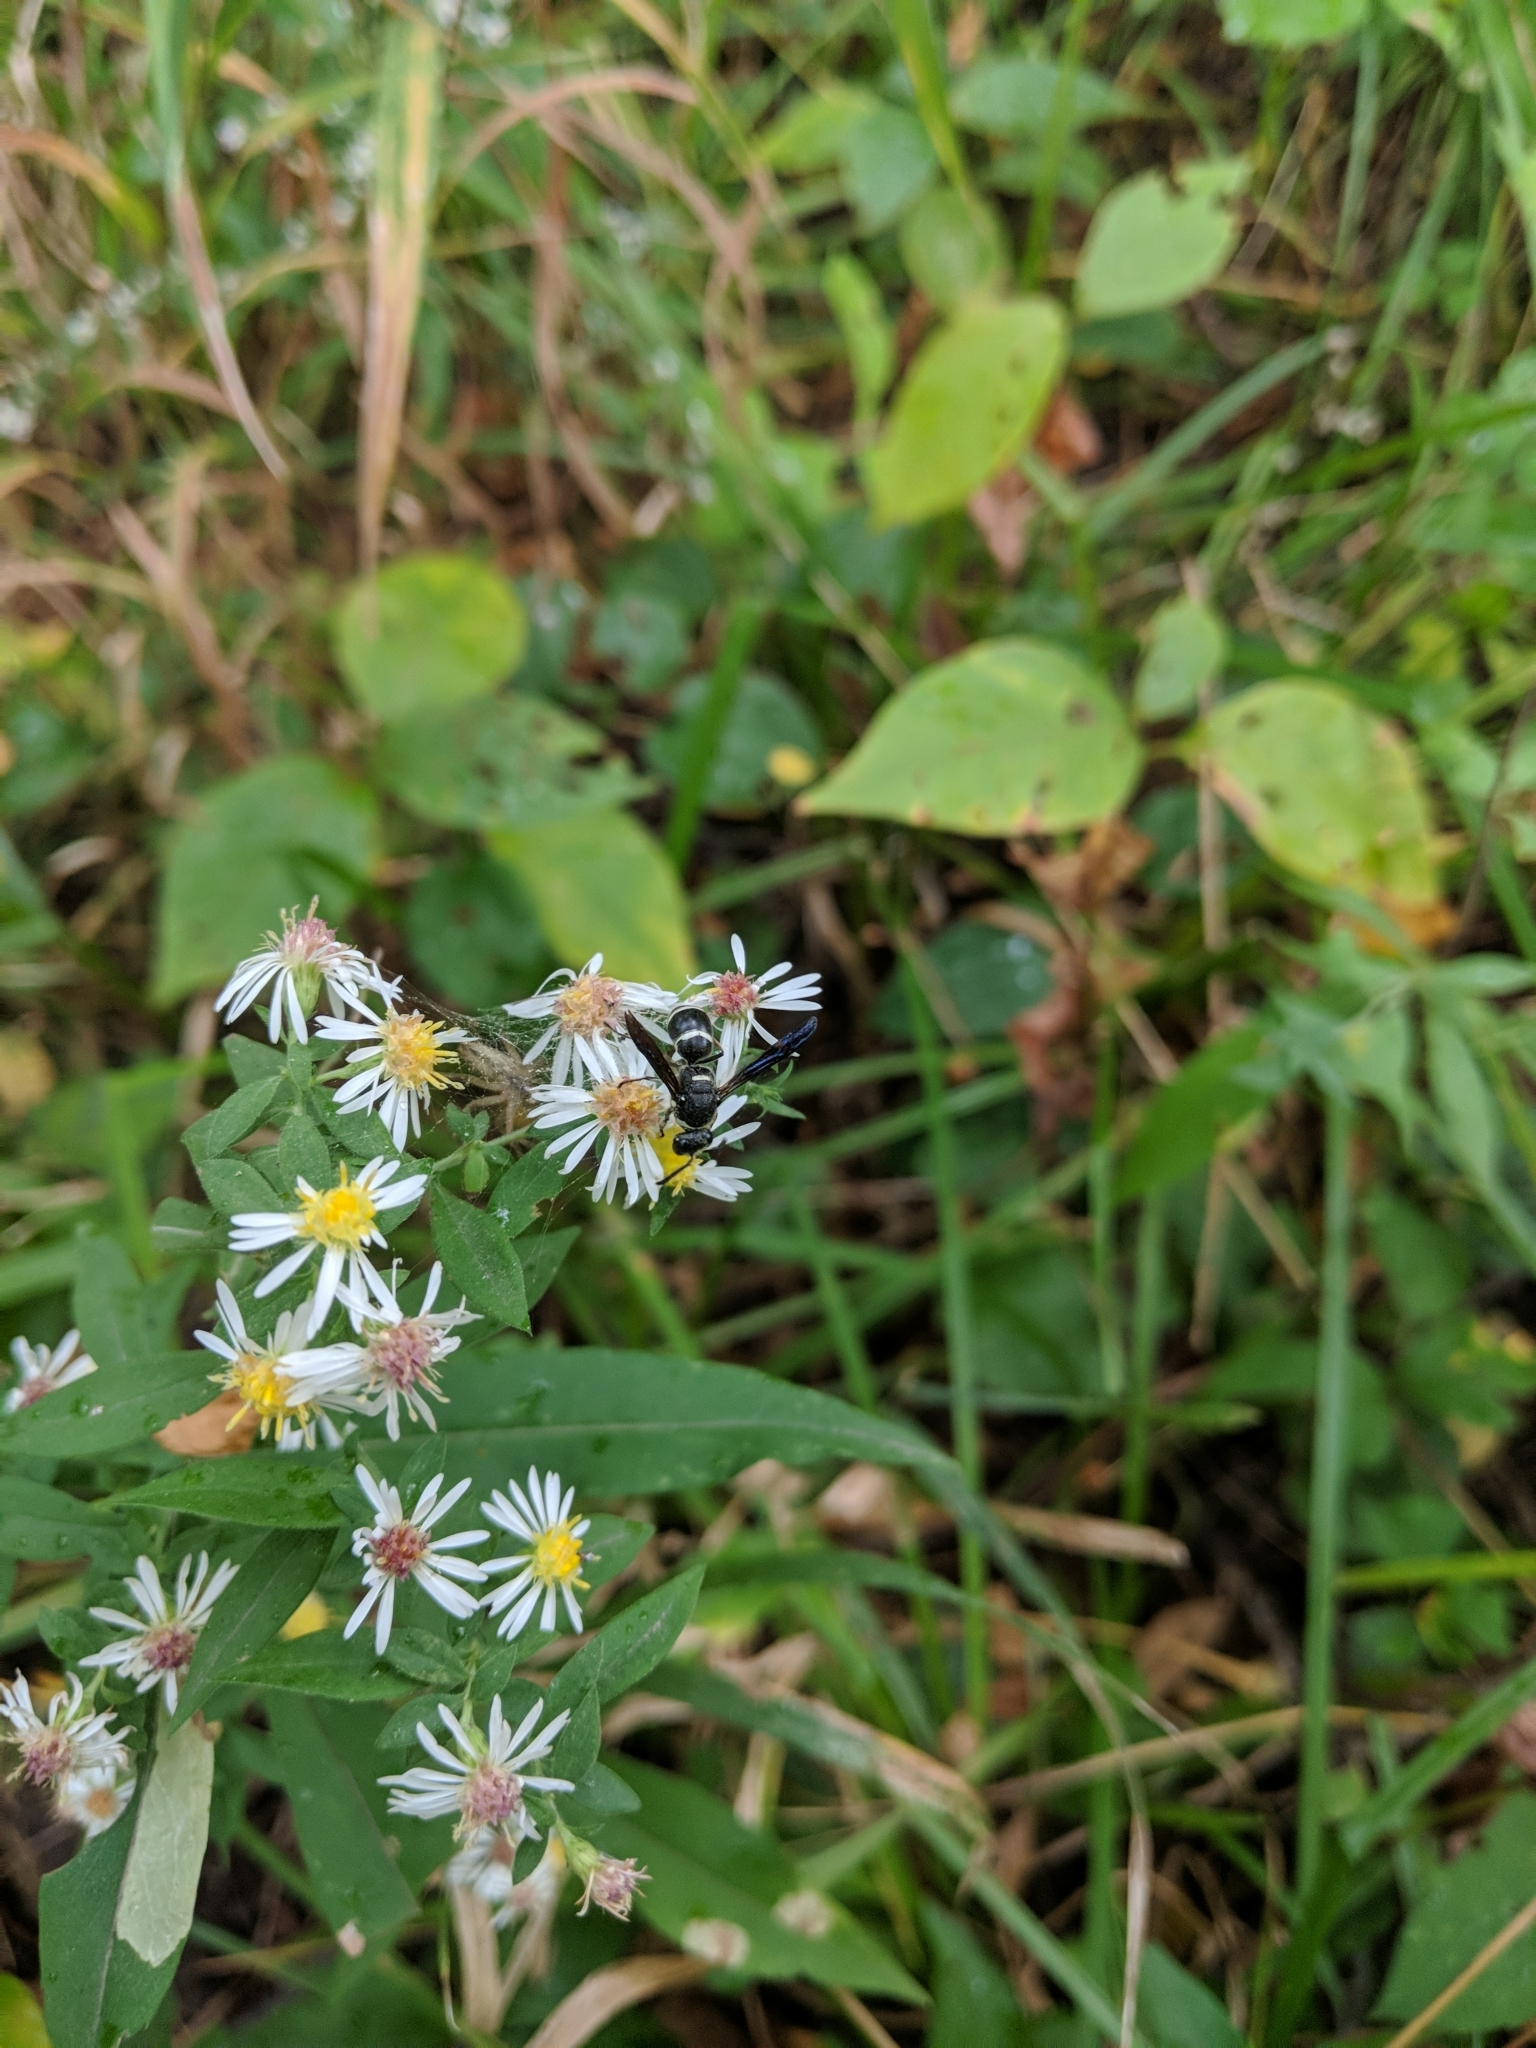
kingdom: Animalia
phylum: Arthropoda
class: Insecta
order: Hymenoptera
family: Eumenidae
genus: Euodynerus
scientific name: Euodynerus schwarzi
